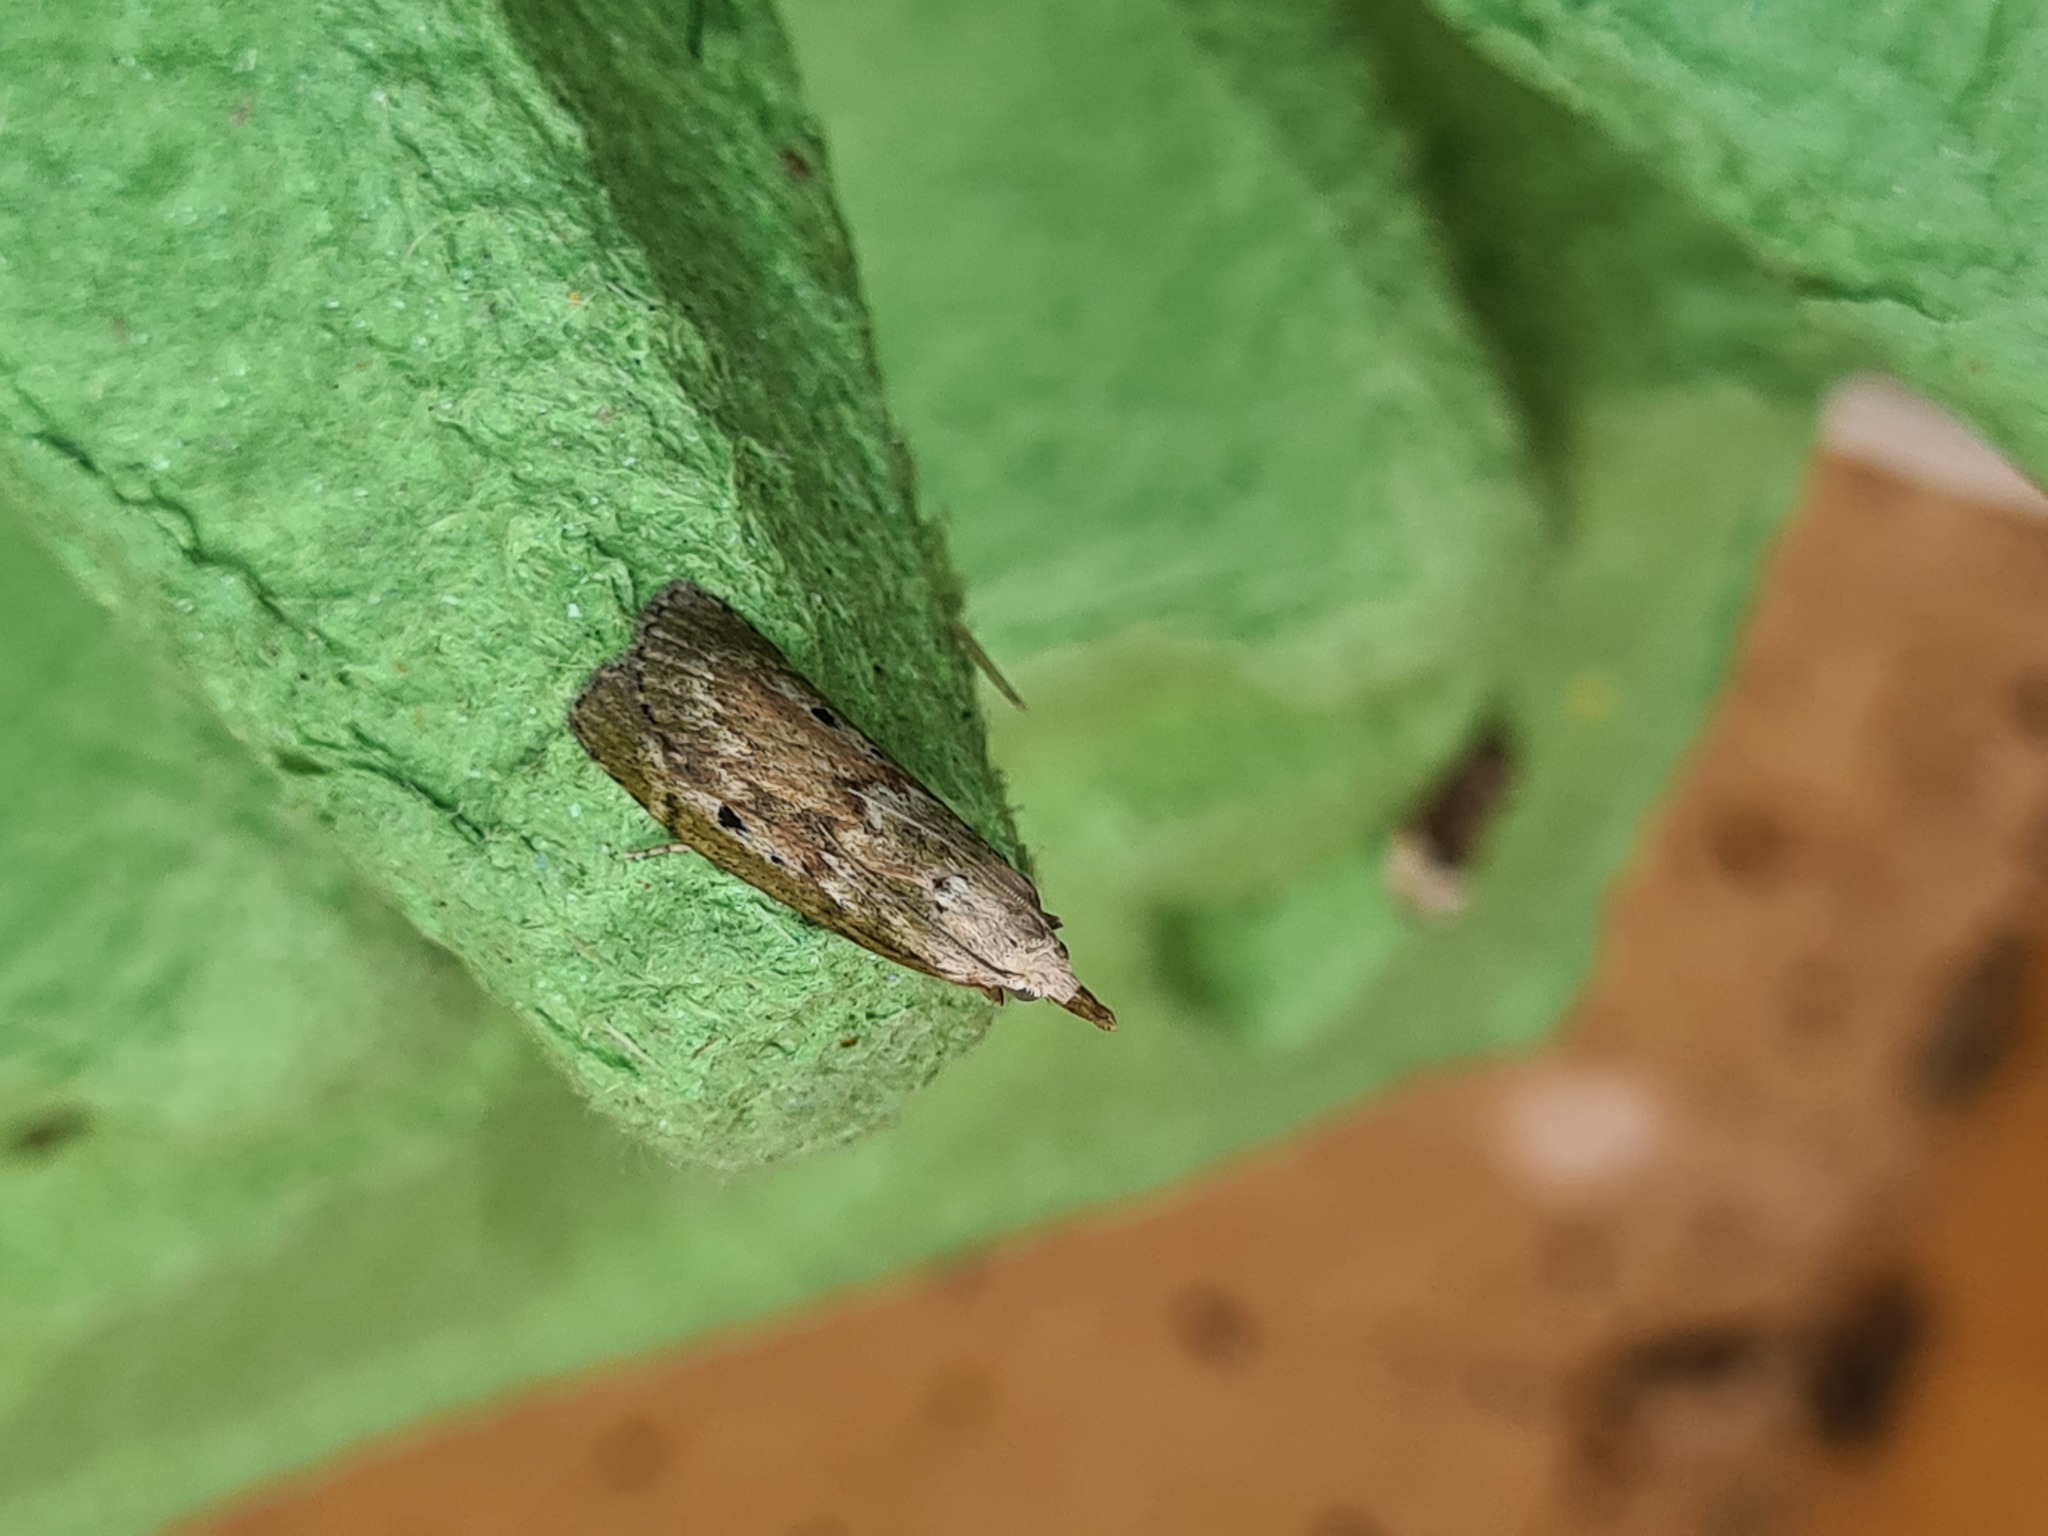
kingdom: Animalia
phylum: Arthropoda
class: Insecta
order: Lepidoptera
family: Pyralidae
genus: Aphomia
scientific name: Aphomia sociella
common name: Bee moth
